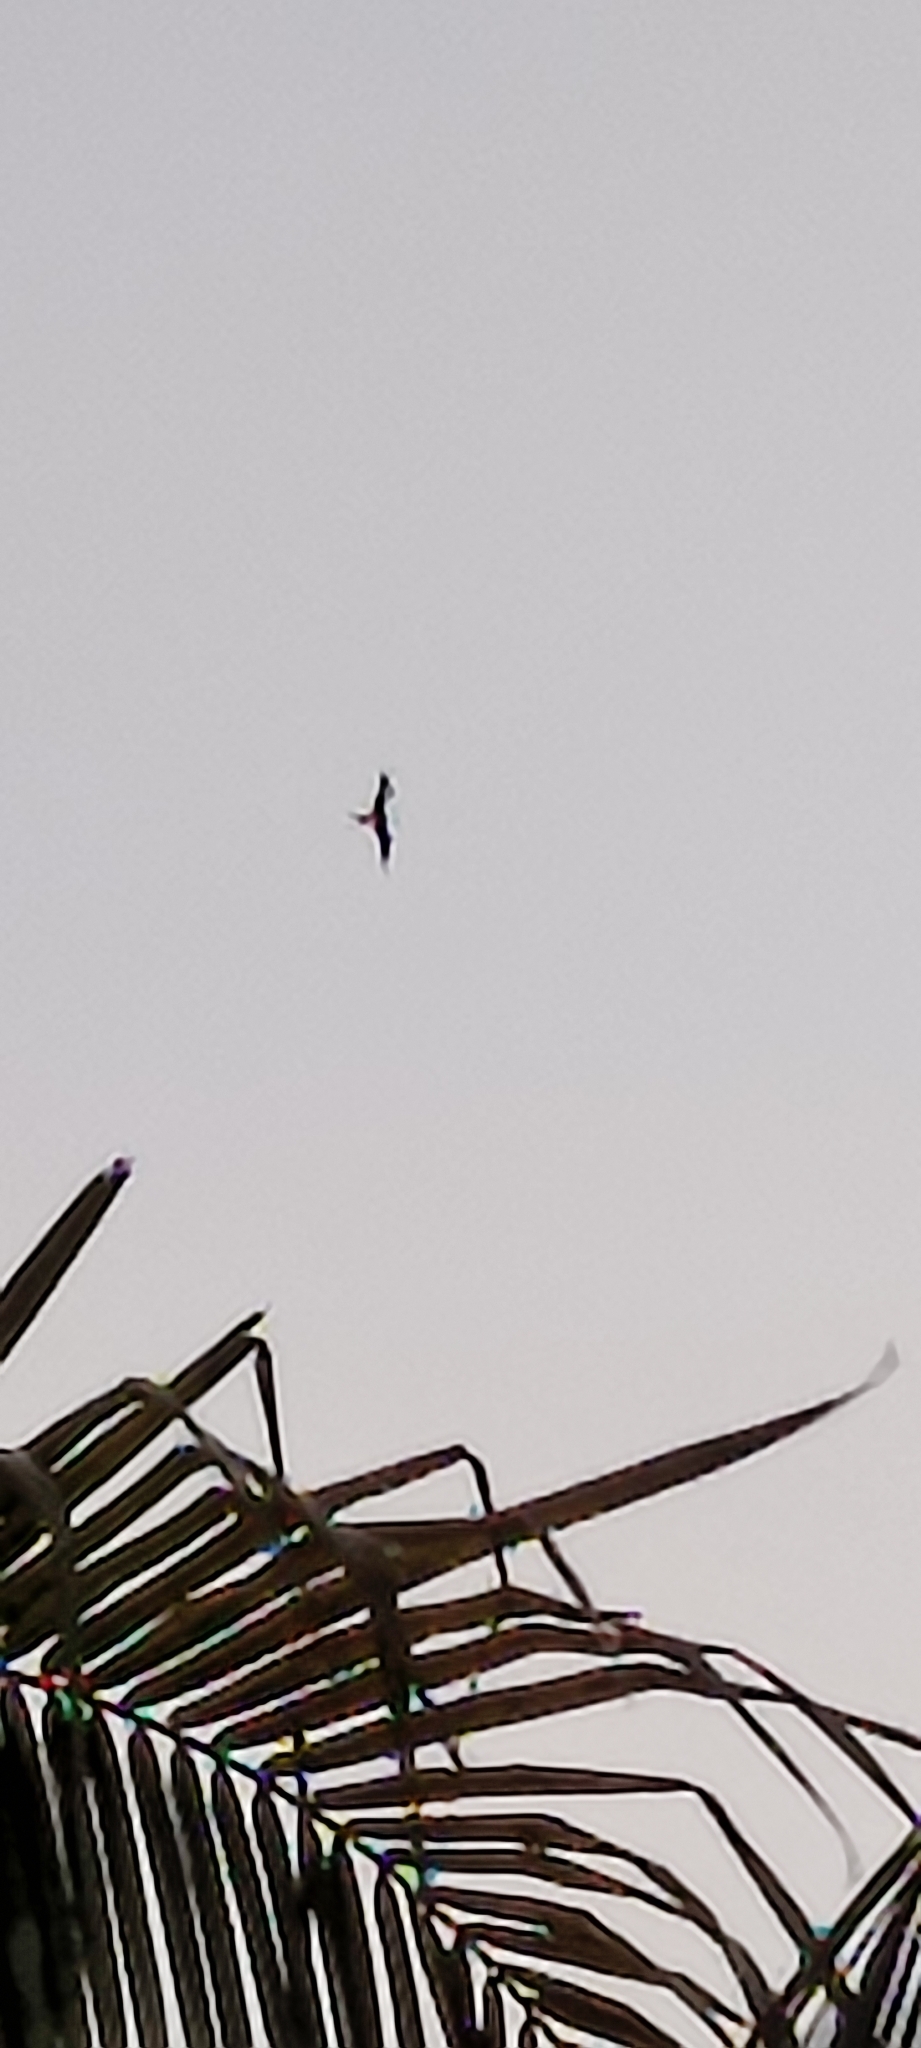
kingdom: Animalia
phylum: Chordata
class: Aves
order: Suliformes
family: Fregatidae
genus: Fregata
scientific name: Fregata magnificens
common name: Magnificent frigatebird
